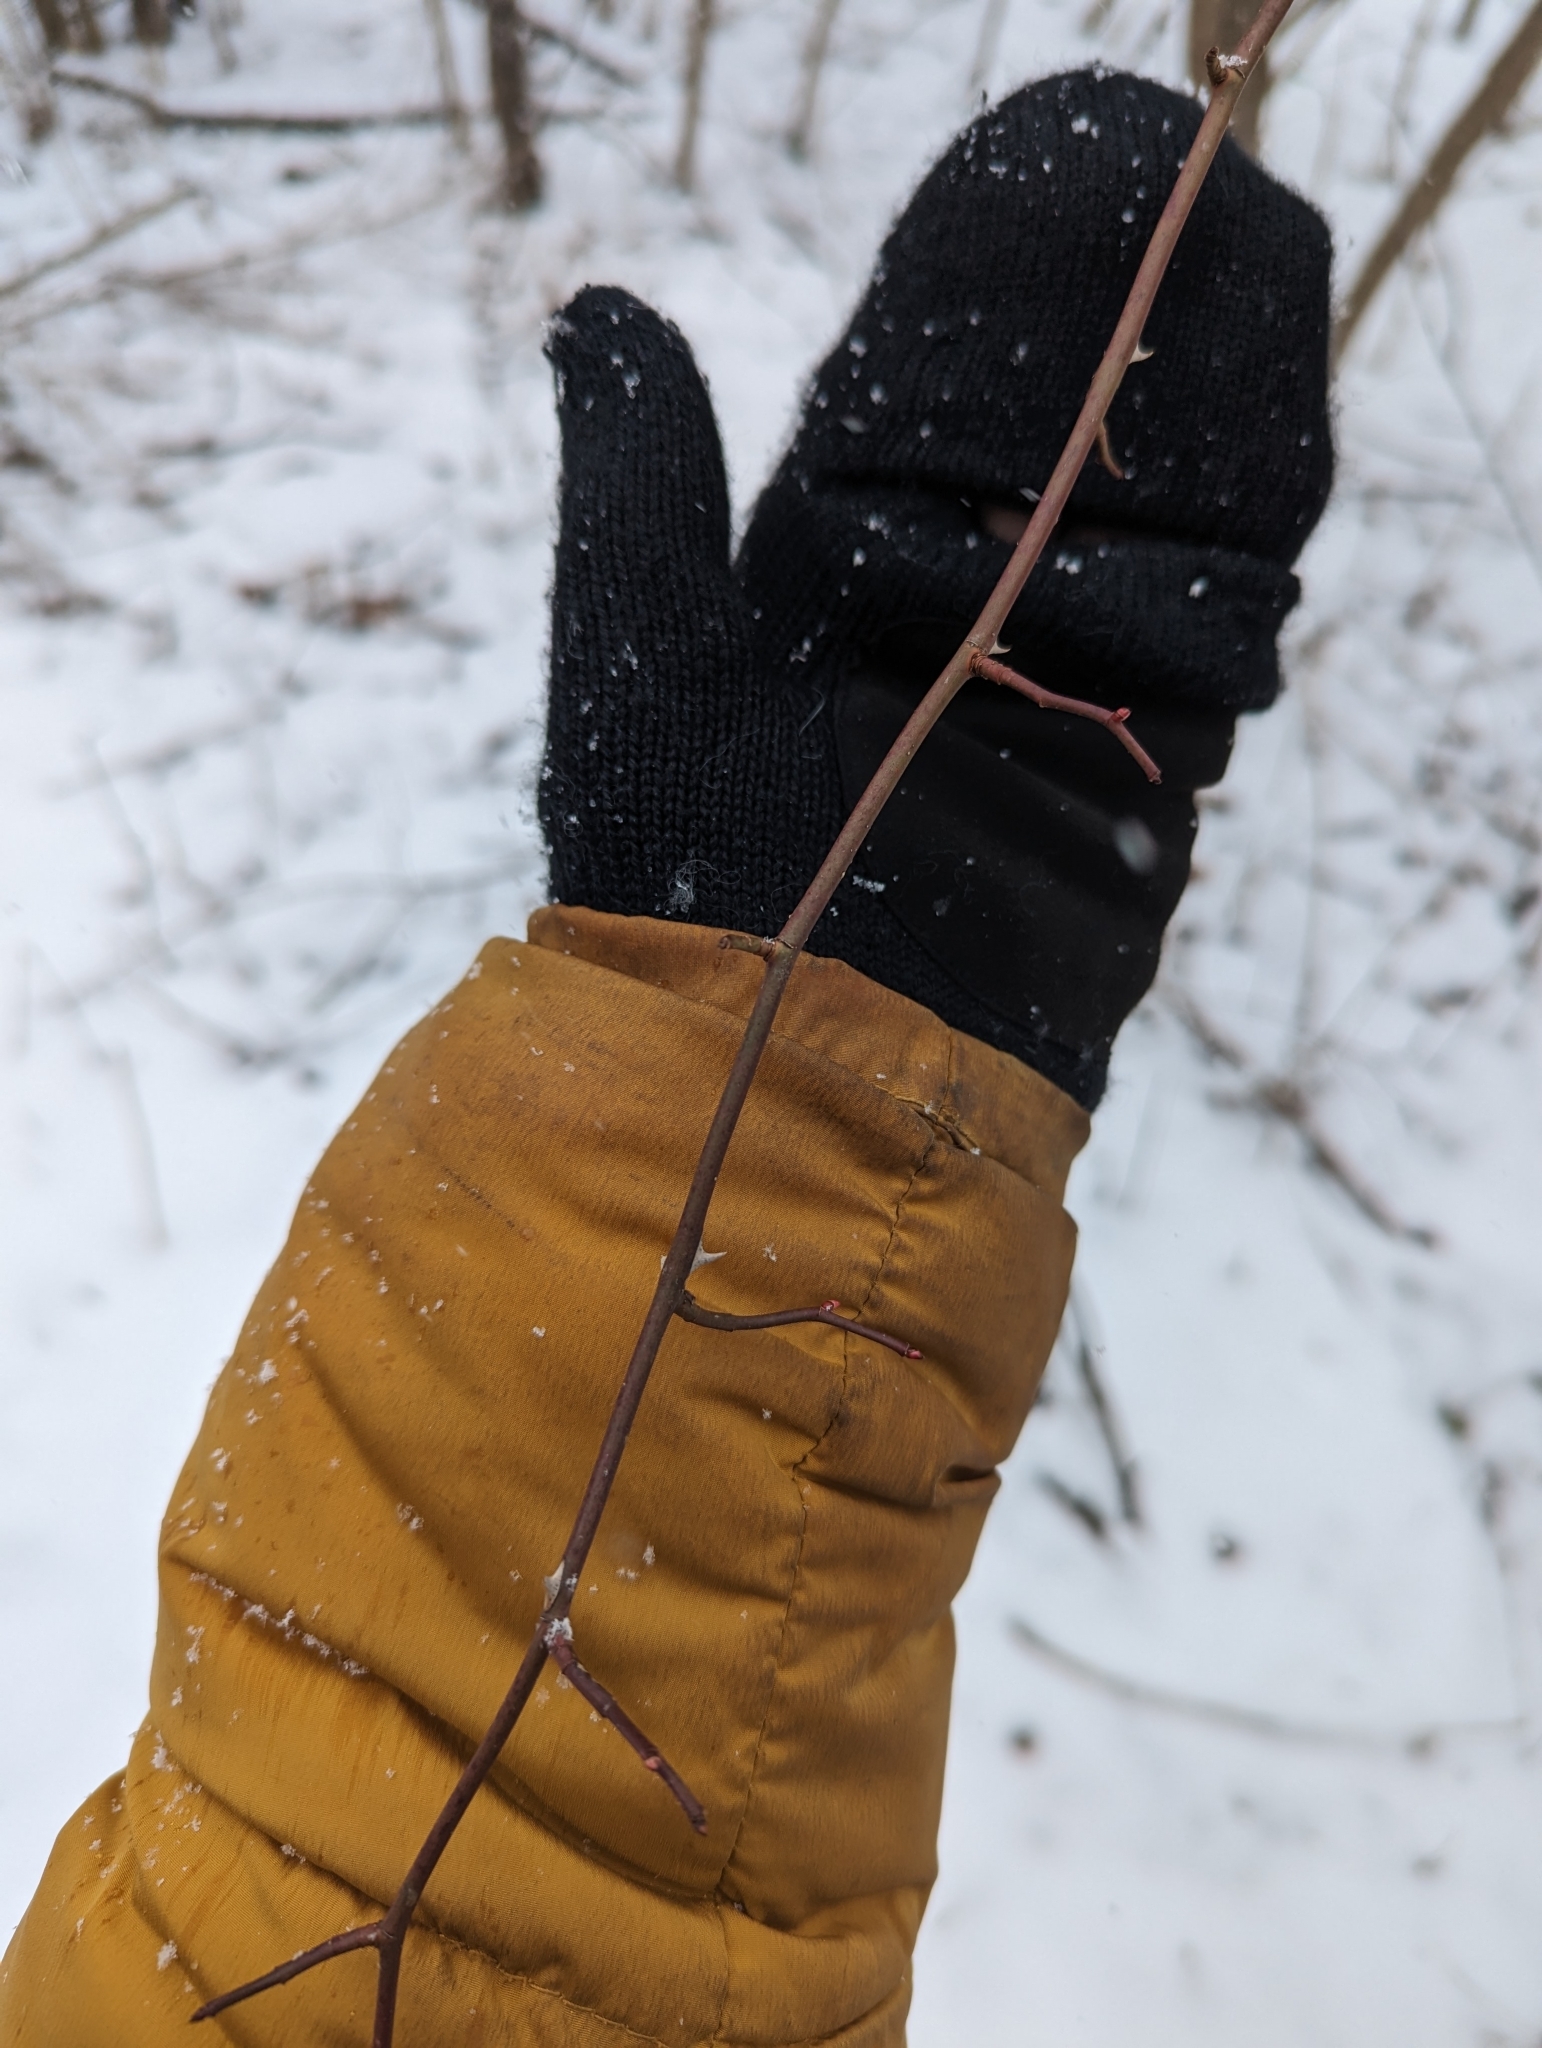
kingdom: Plantae
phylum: Tracheophyta
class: Magnoliopsida
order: Rosales
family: Rosaceae
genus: Rosa
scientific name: Rosa multiflora
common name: Multiflora rose
